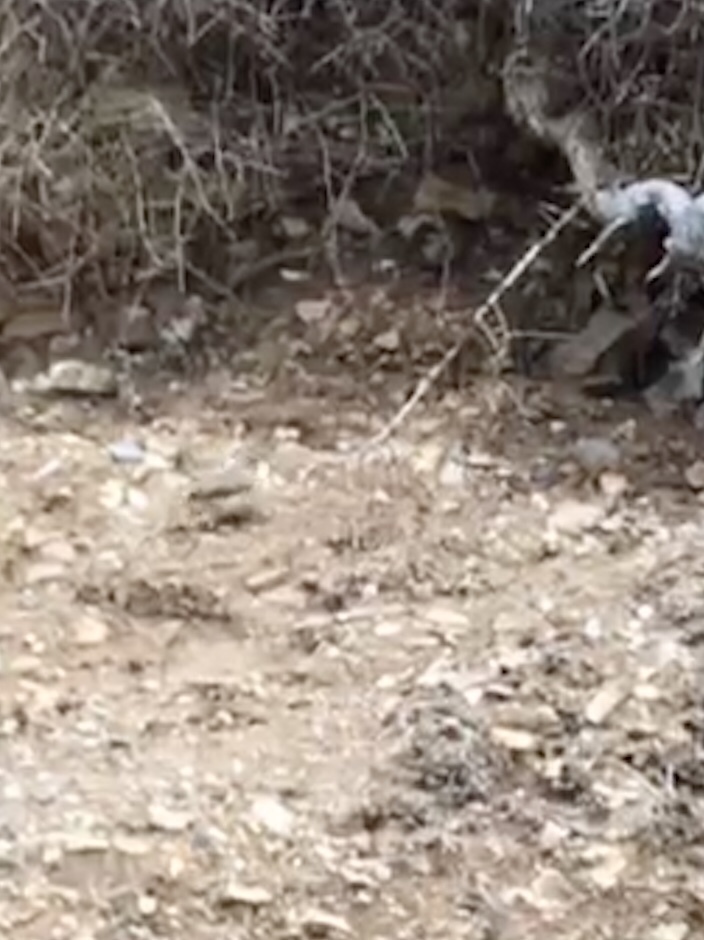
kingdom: Animalia
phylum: Chordata
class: Aves
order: Passeriformes
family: Troglodytidae
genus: Salpinctes
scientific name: Salpinctes obsoletus
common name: Rock wren
